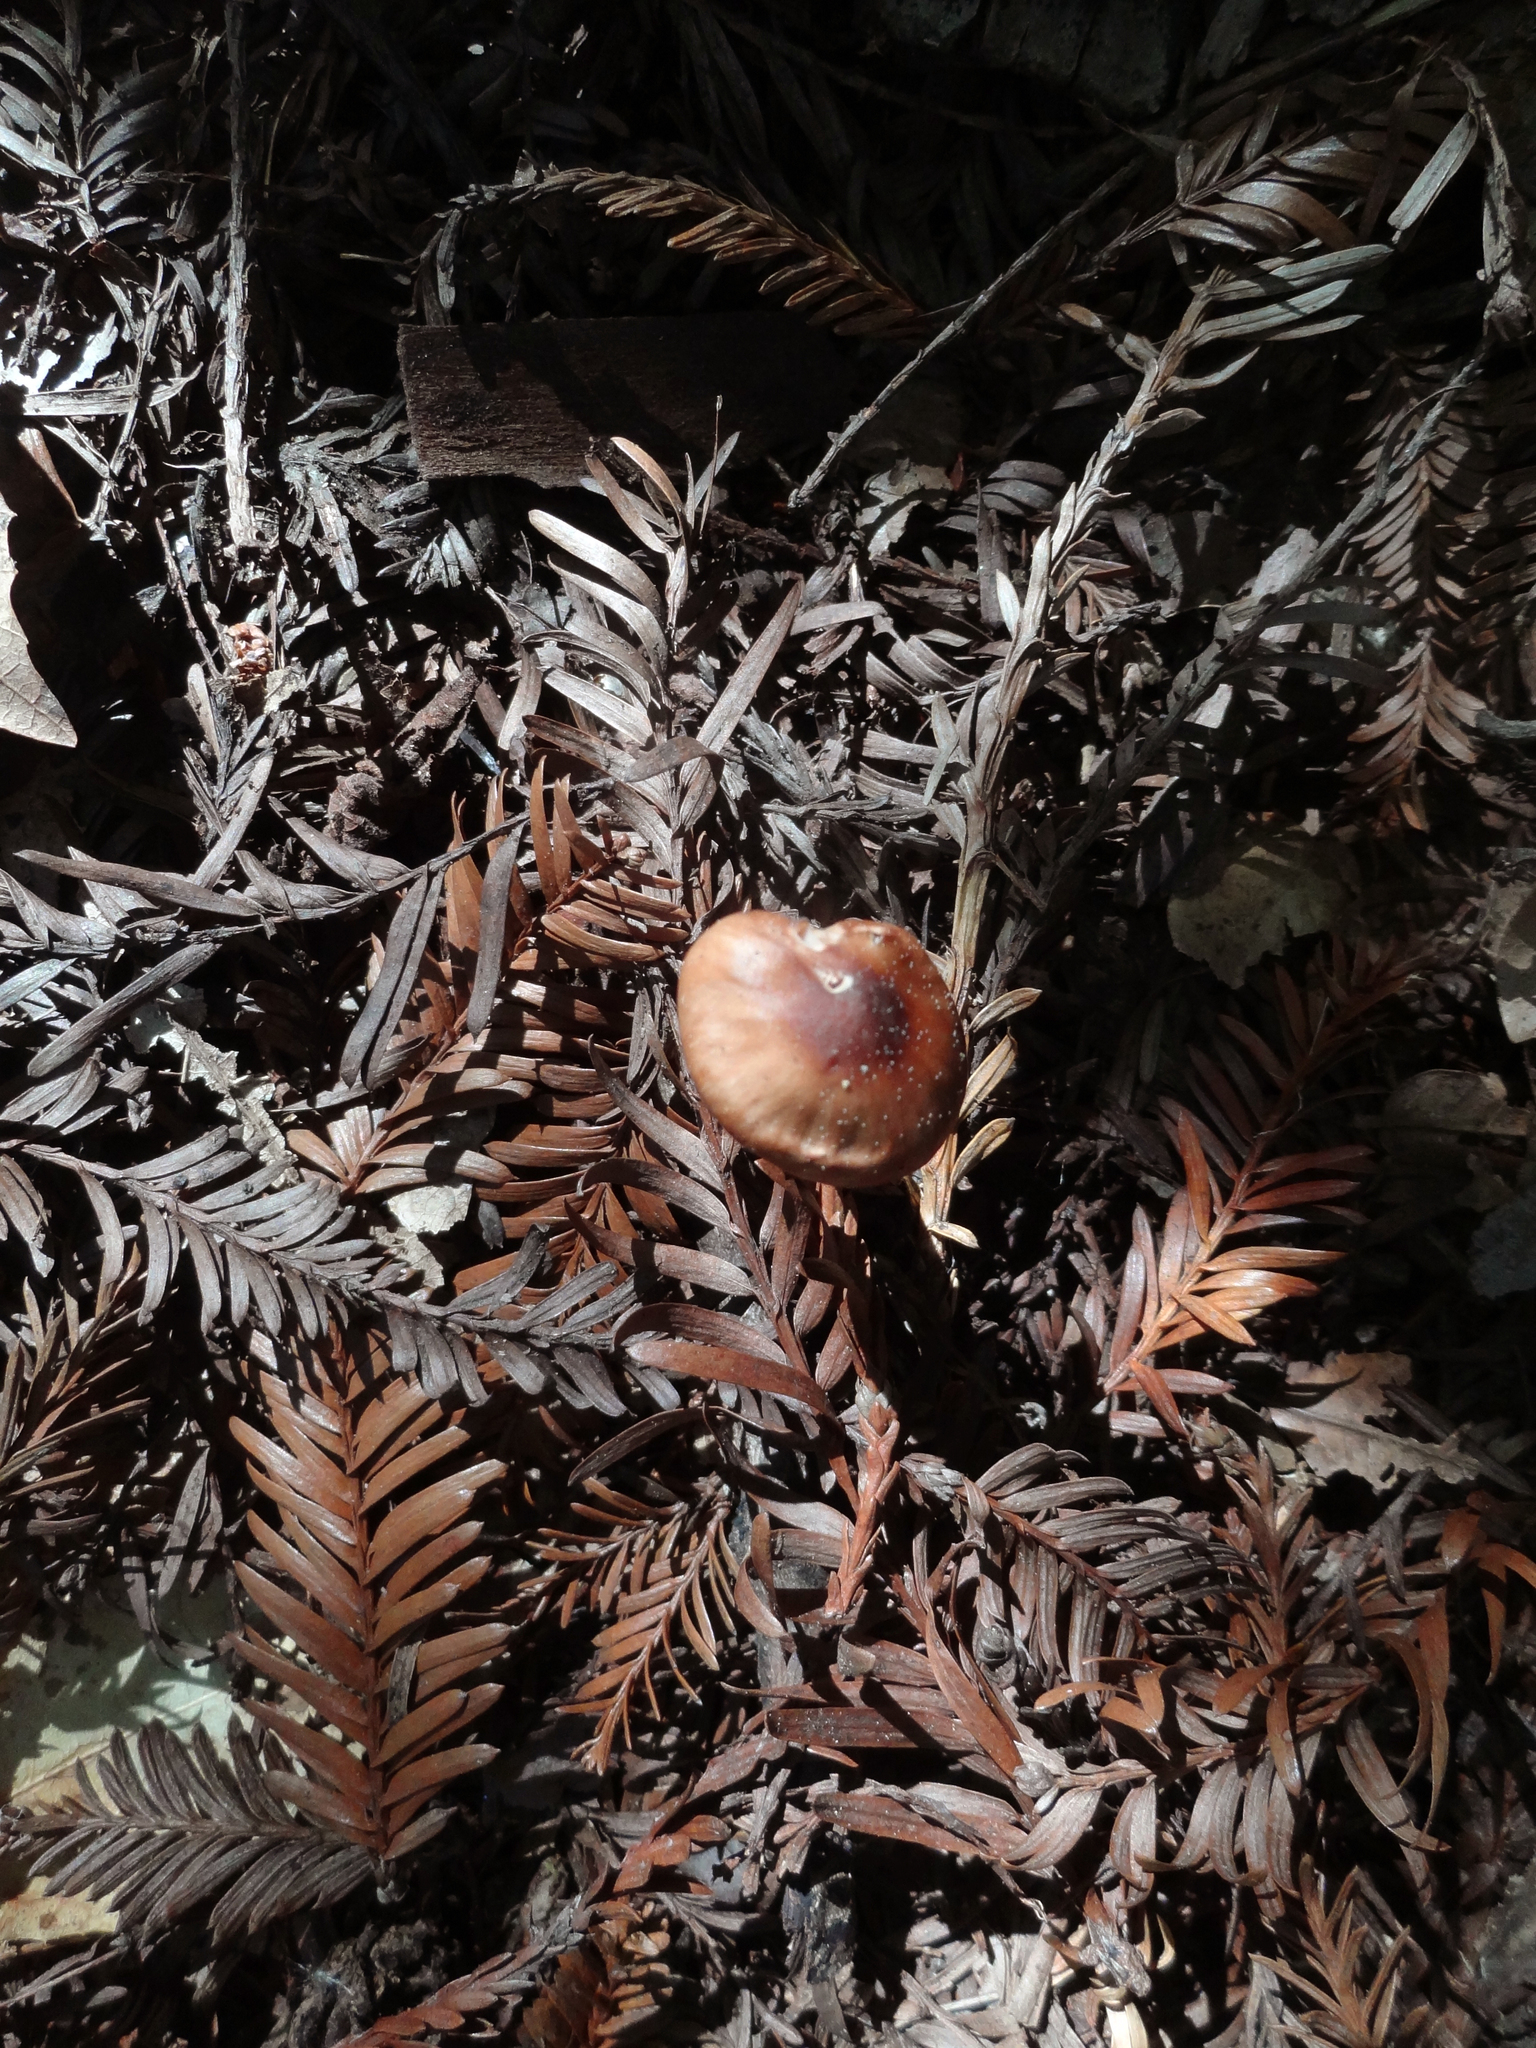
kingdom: Fungi
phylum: Basidiomycota
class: Agaricomycetes
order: Agaricales
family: Hygrophoraceae
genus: Cuphophyllus
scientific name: Cuphophyllus colemannianus
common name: Toasted waxcap
